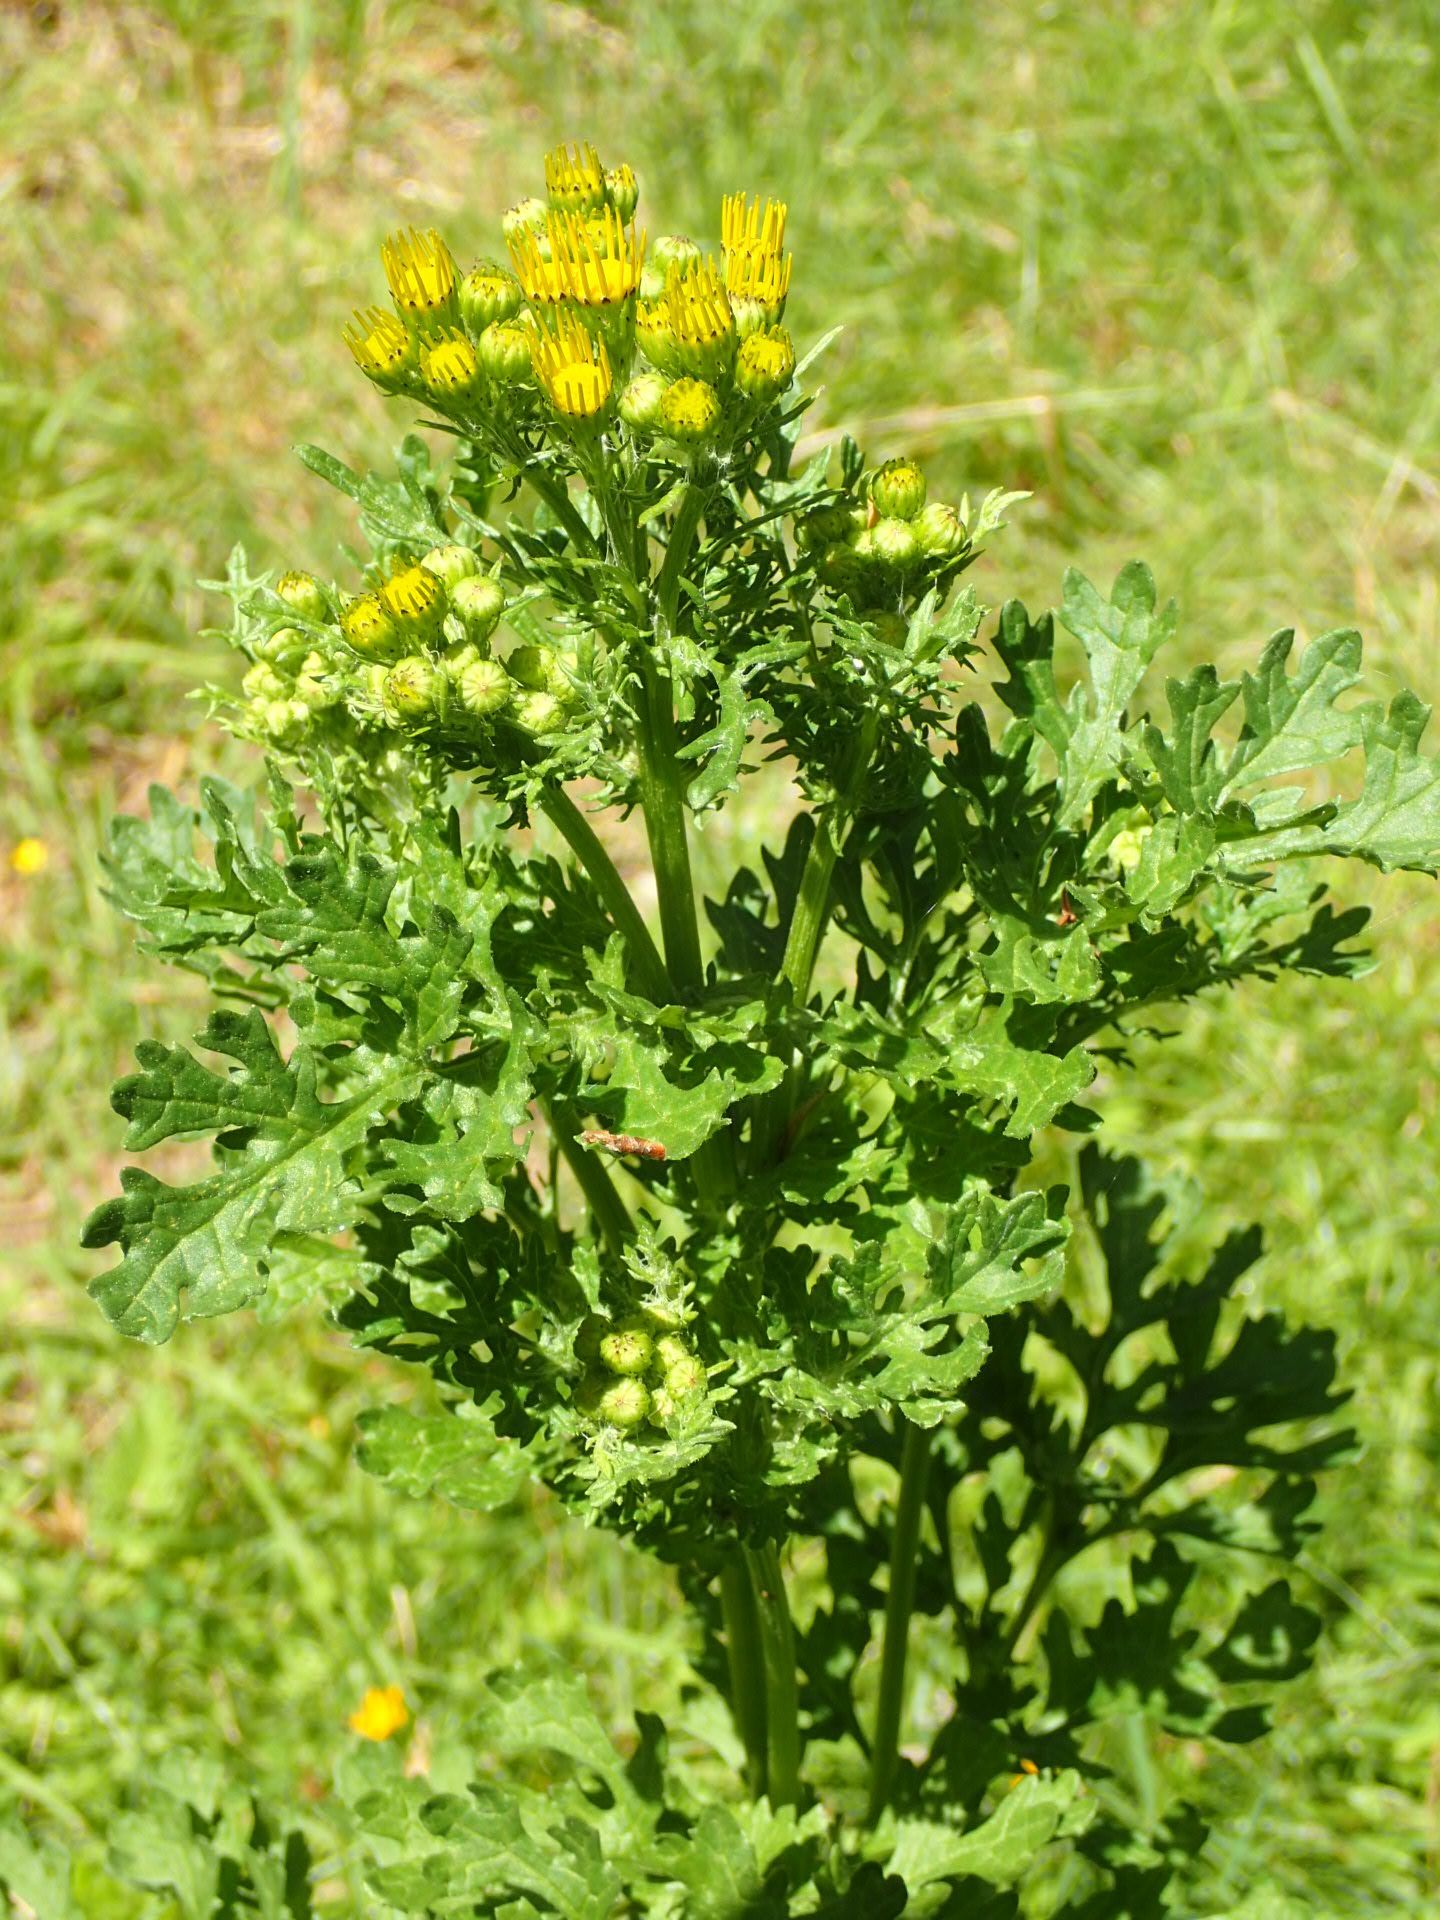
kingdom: Plantae
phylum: Tracheophyta
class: Magnoliopsida
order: Asterales
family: Asteraceae
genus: Jacobaea
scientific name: Jacobaea vulgaris
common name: Stinking willie
